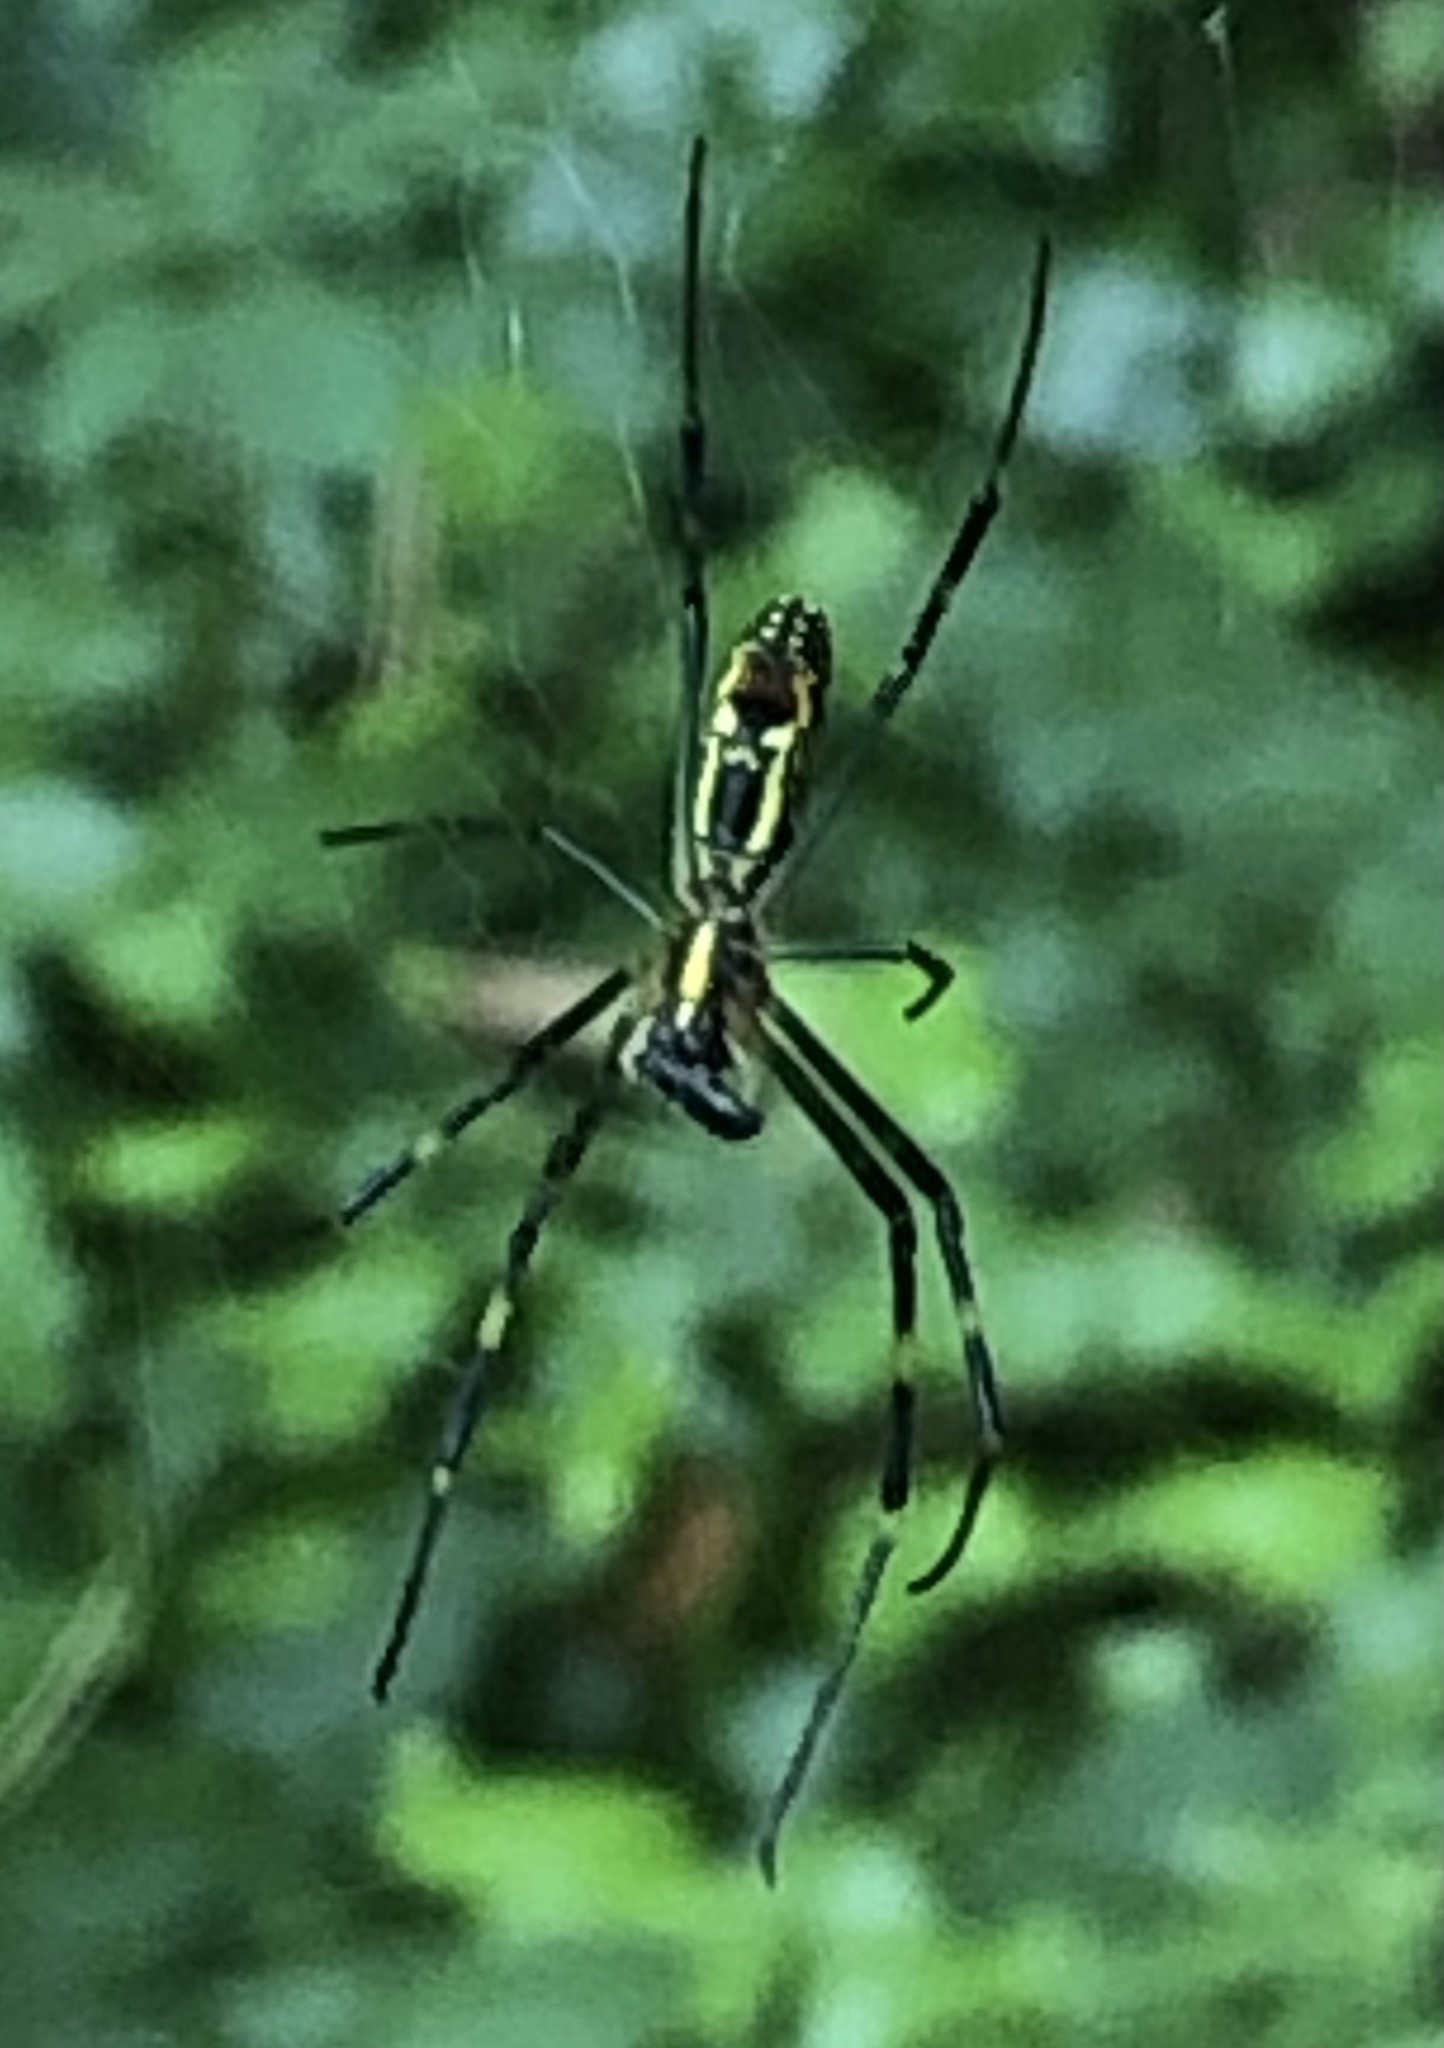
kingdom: Animalia
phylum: Arthropoda
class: Arachnida
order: Araneae
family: Araneidae
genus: Trichonephila
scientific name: Trichonephila clavata
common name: Jorō spider
